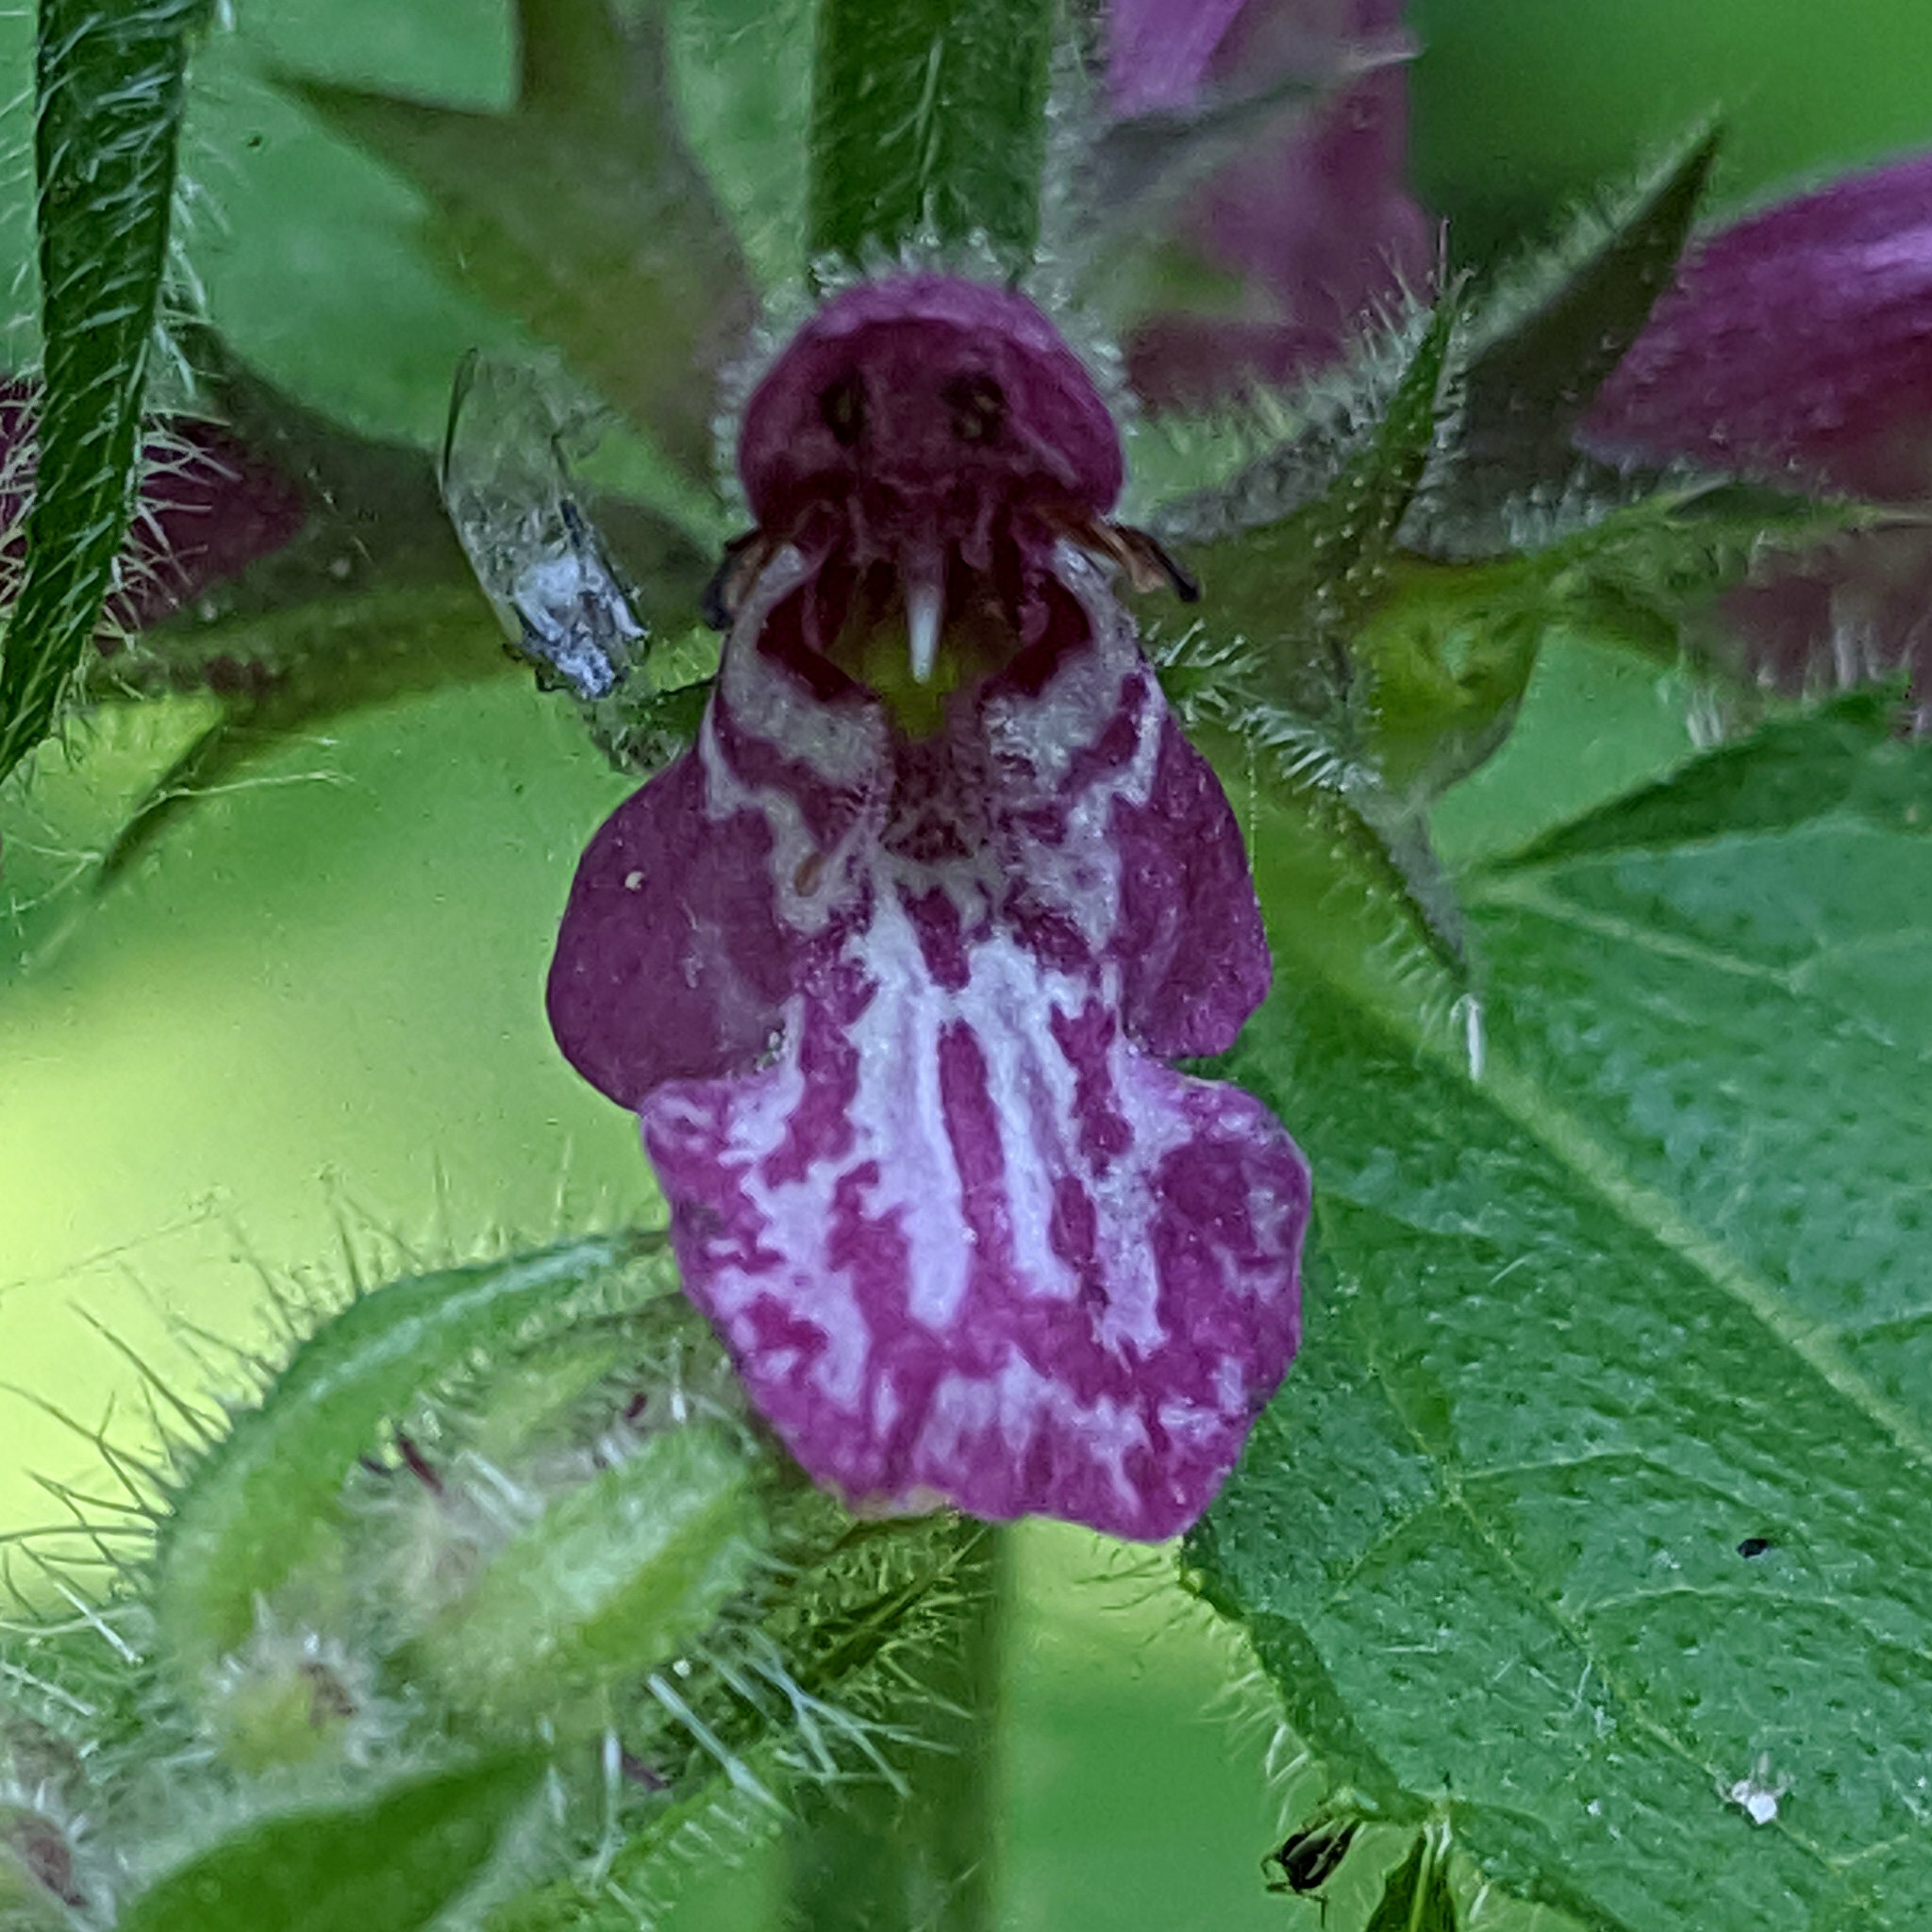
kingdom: Plantae
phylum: Tracheophyta
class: Magnoliopsida
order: Lamiales
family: Lamiaceae
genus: Stachys
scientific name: Stachys sylvatica
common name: Hedge woundwort
